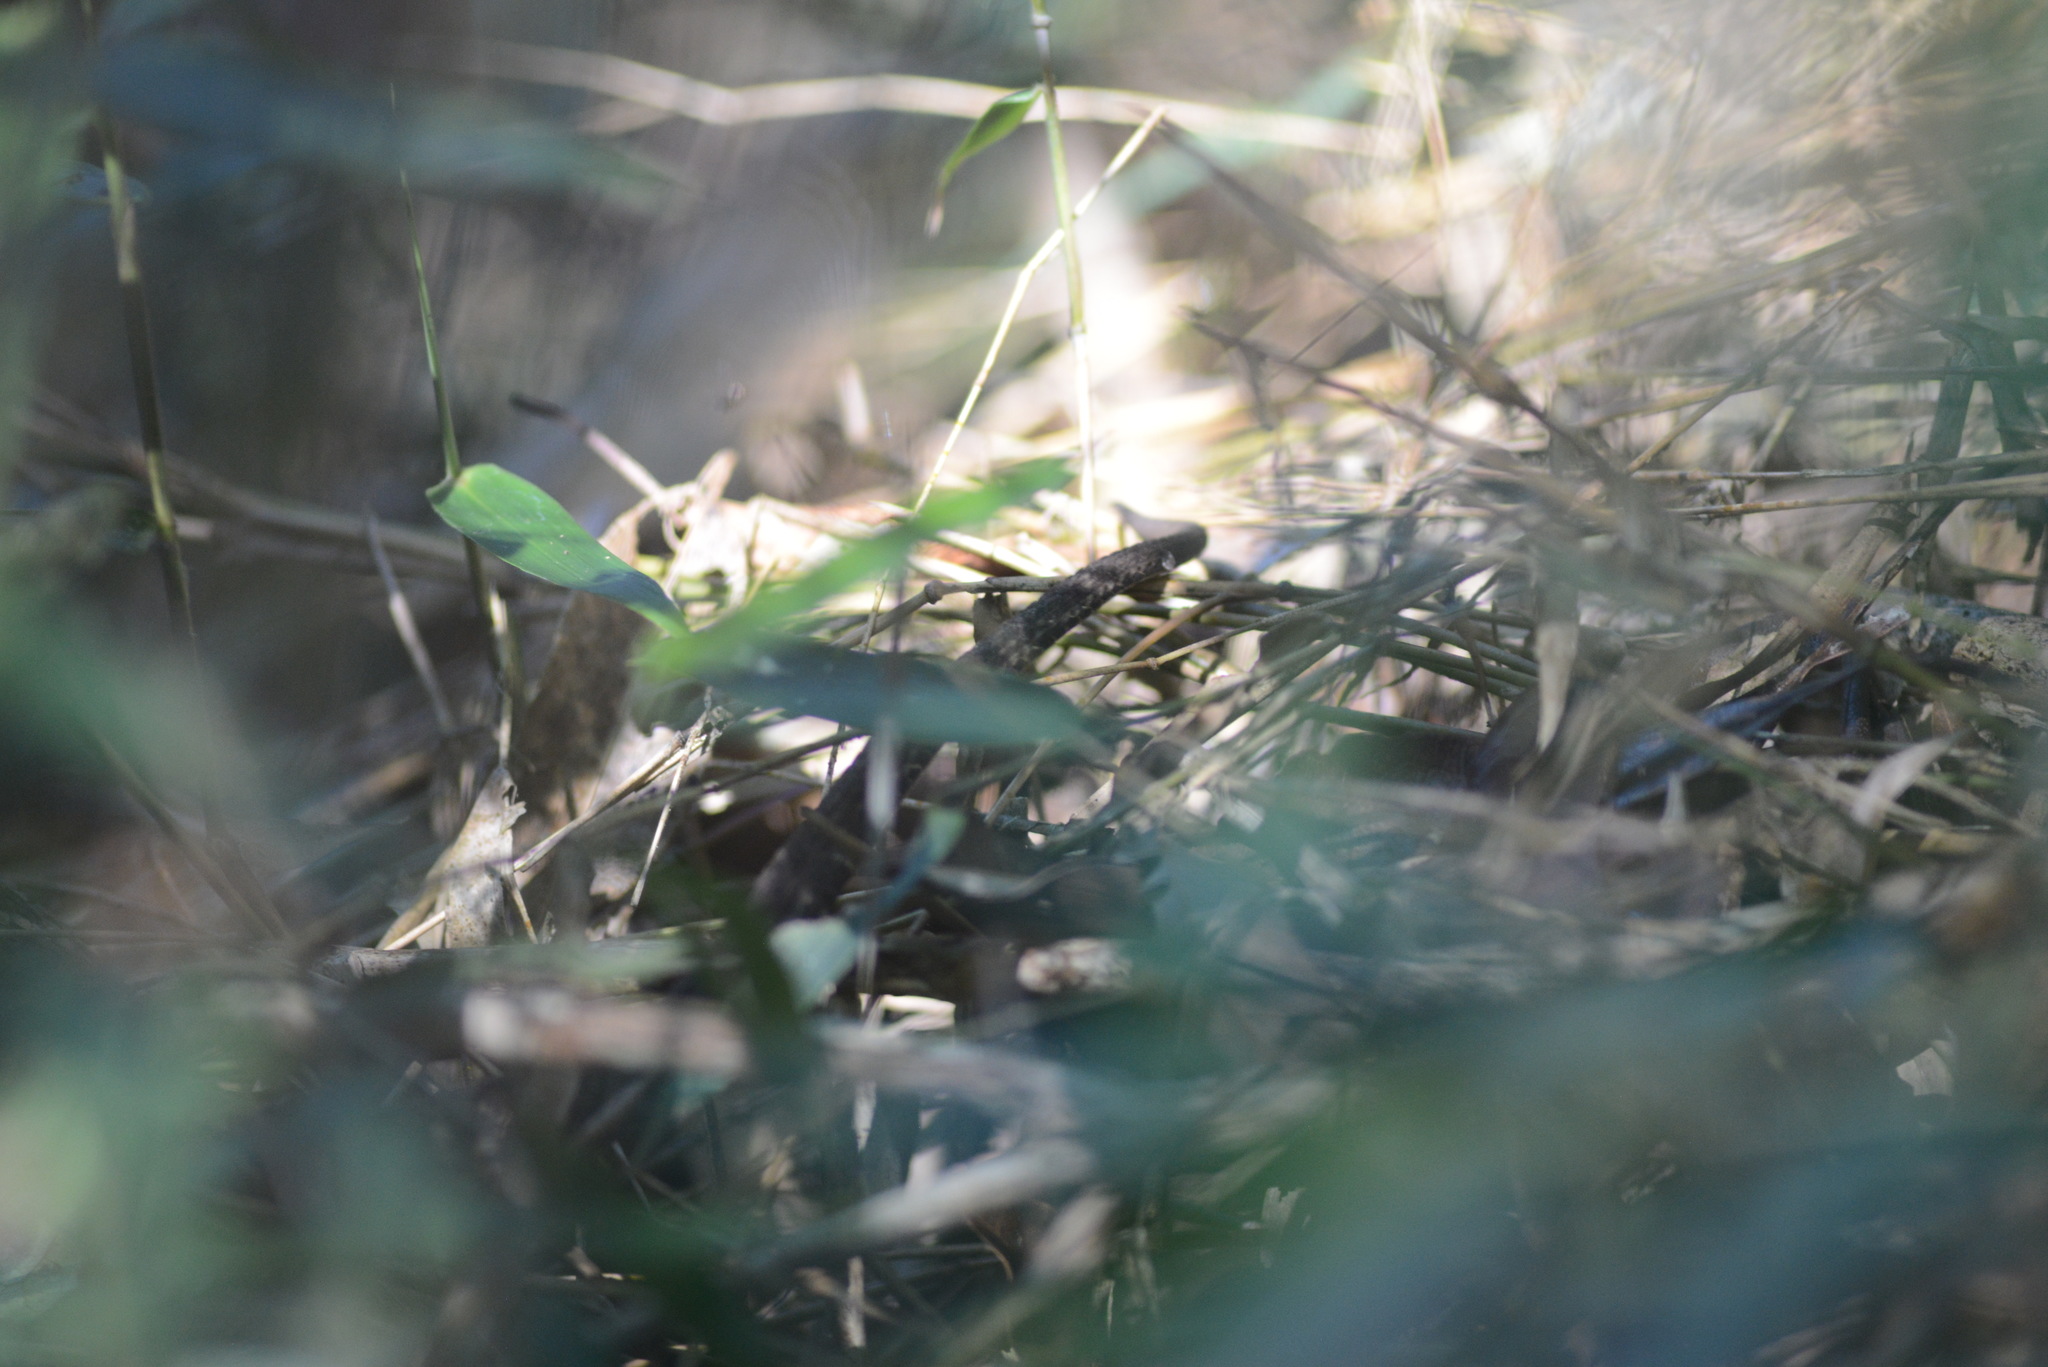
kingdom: Animalia
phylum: Chordata
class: Squamata
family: Viperidae
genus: Bothrops
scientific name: Bothrops jararaca
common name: Jararaca
